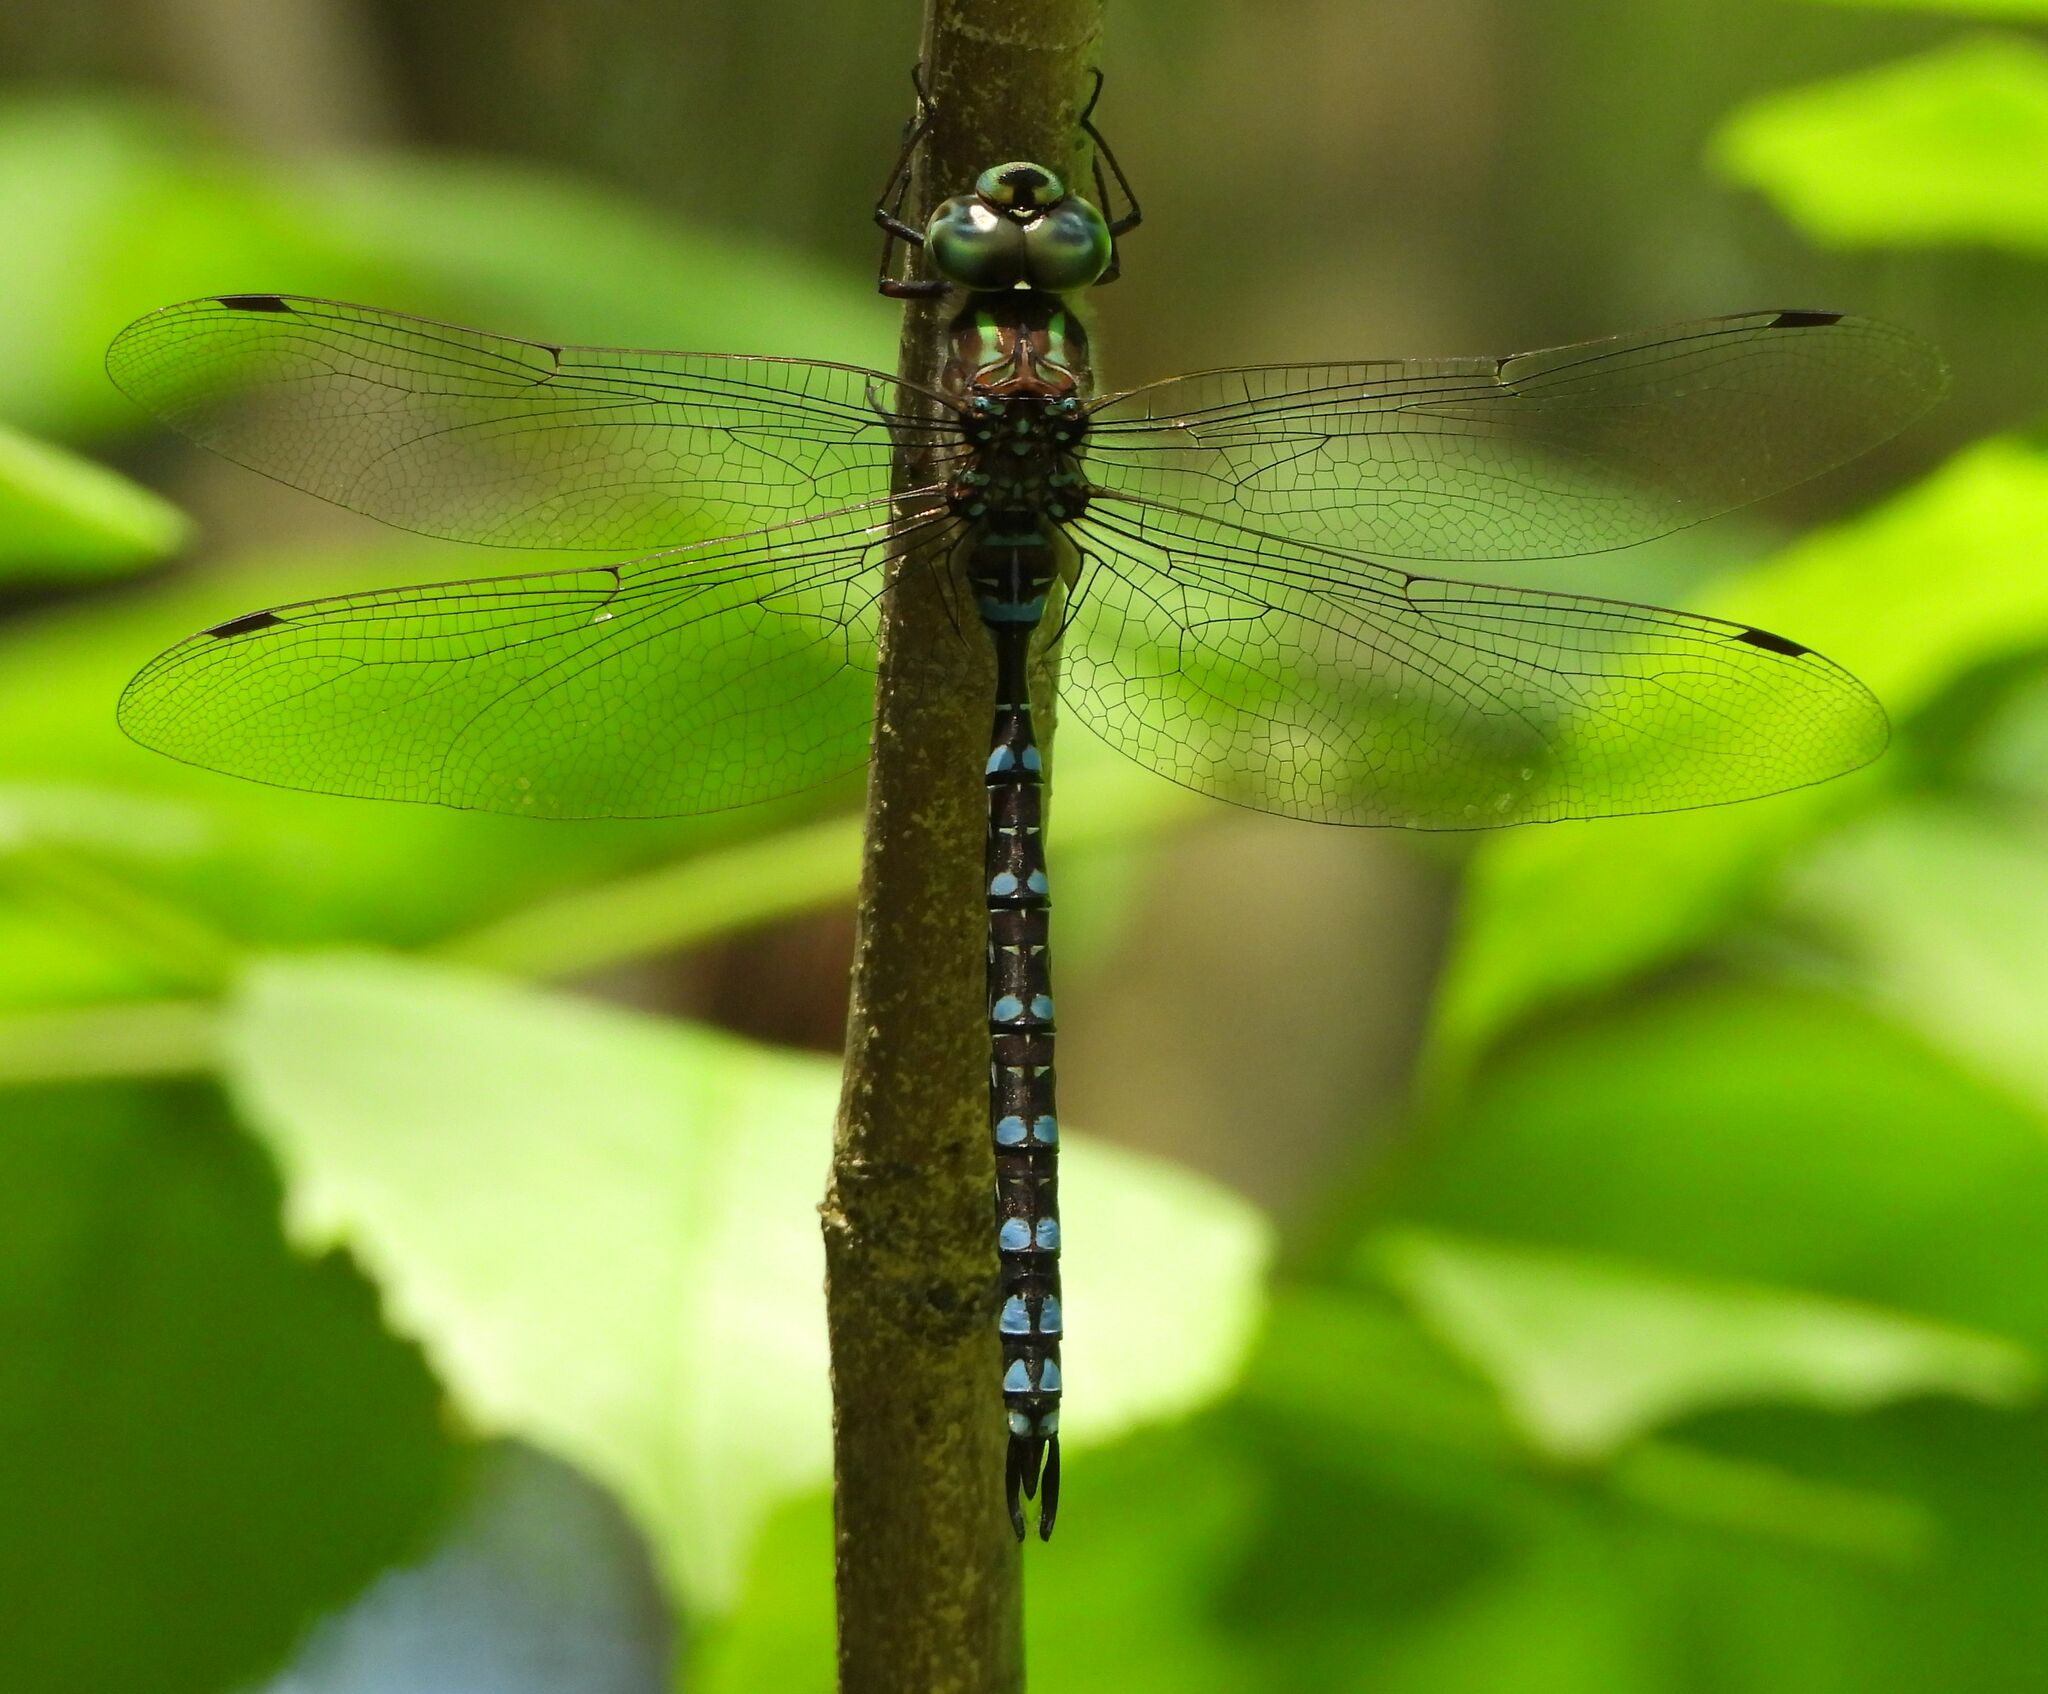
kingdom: Animalia
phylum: Arthropoda
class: Insecta
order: Odonata
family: Aeshnidae
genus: Aeshna
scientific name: Aeshna canadensis
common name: Canada darner
